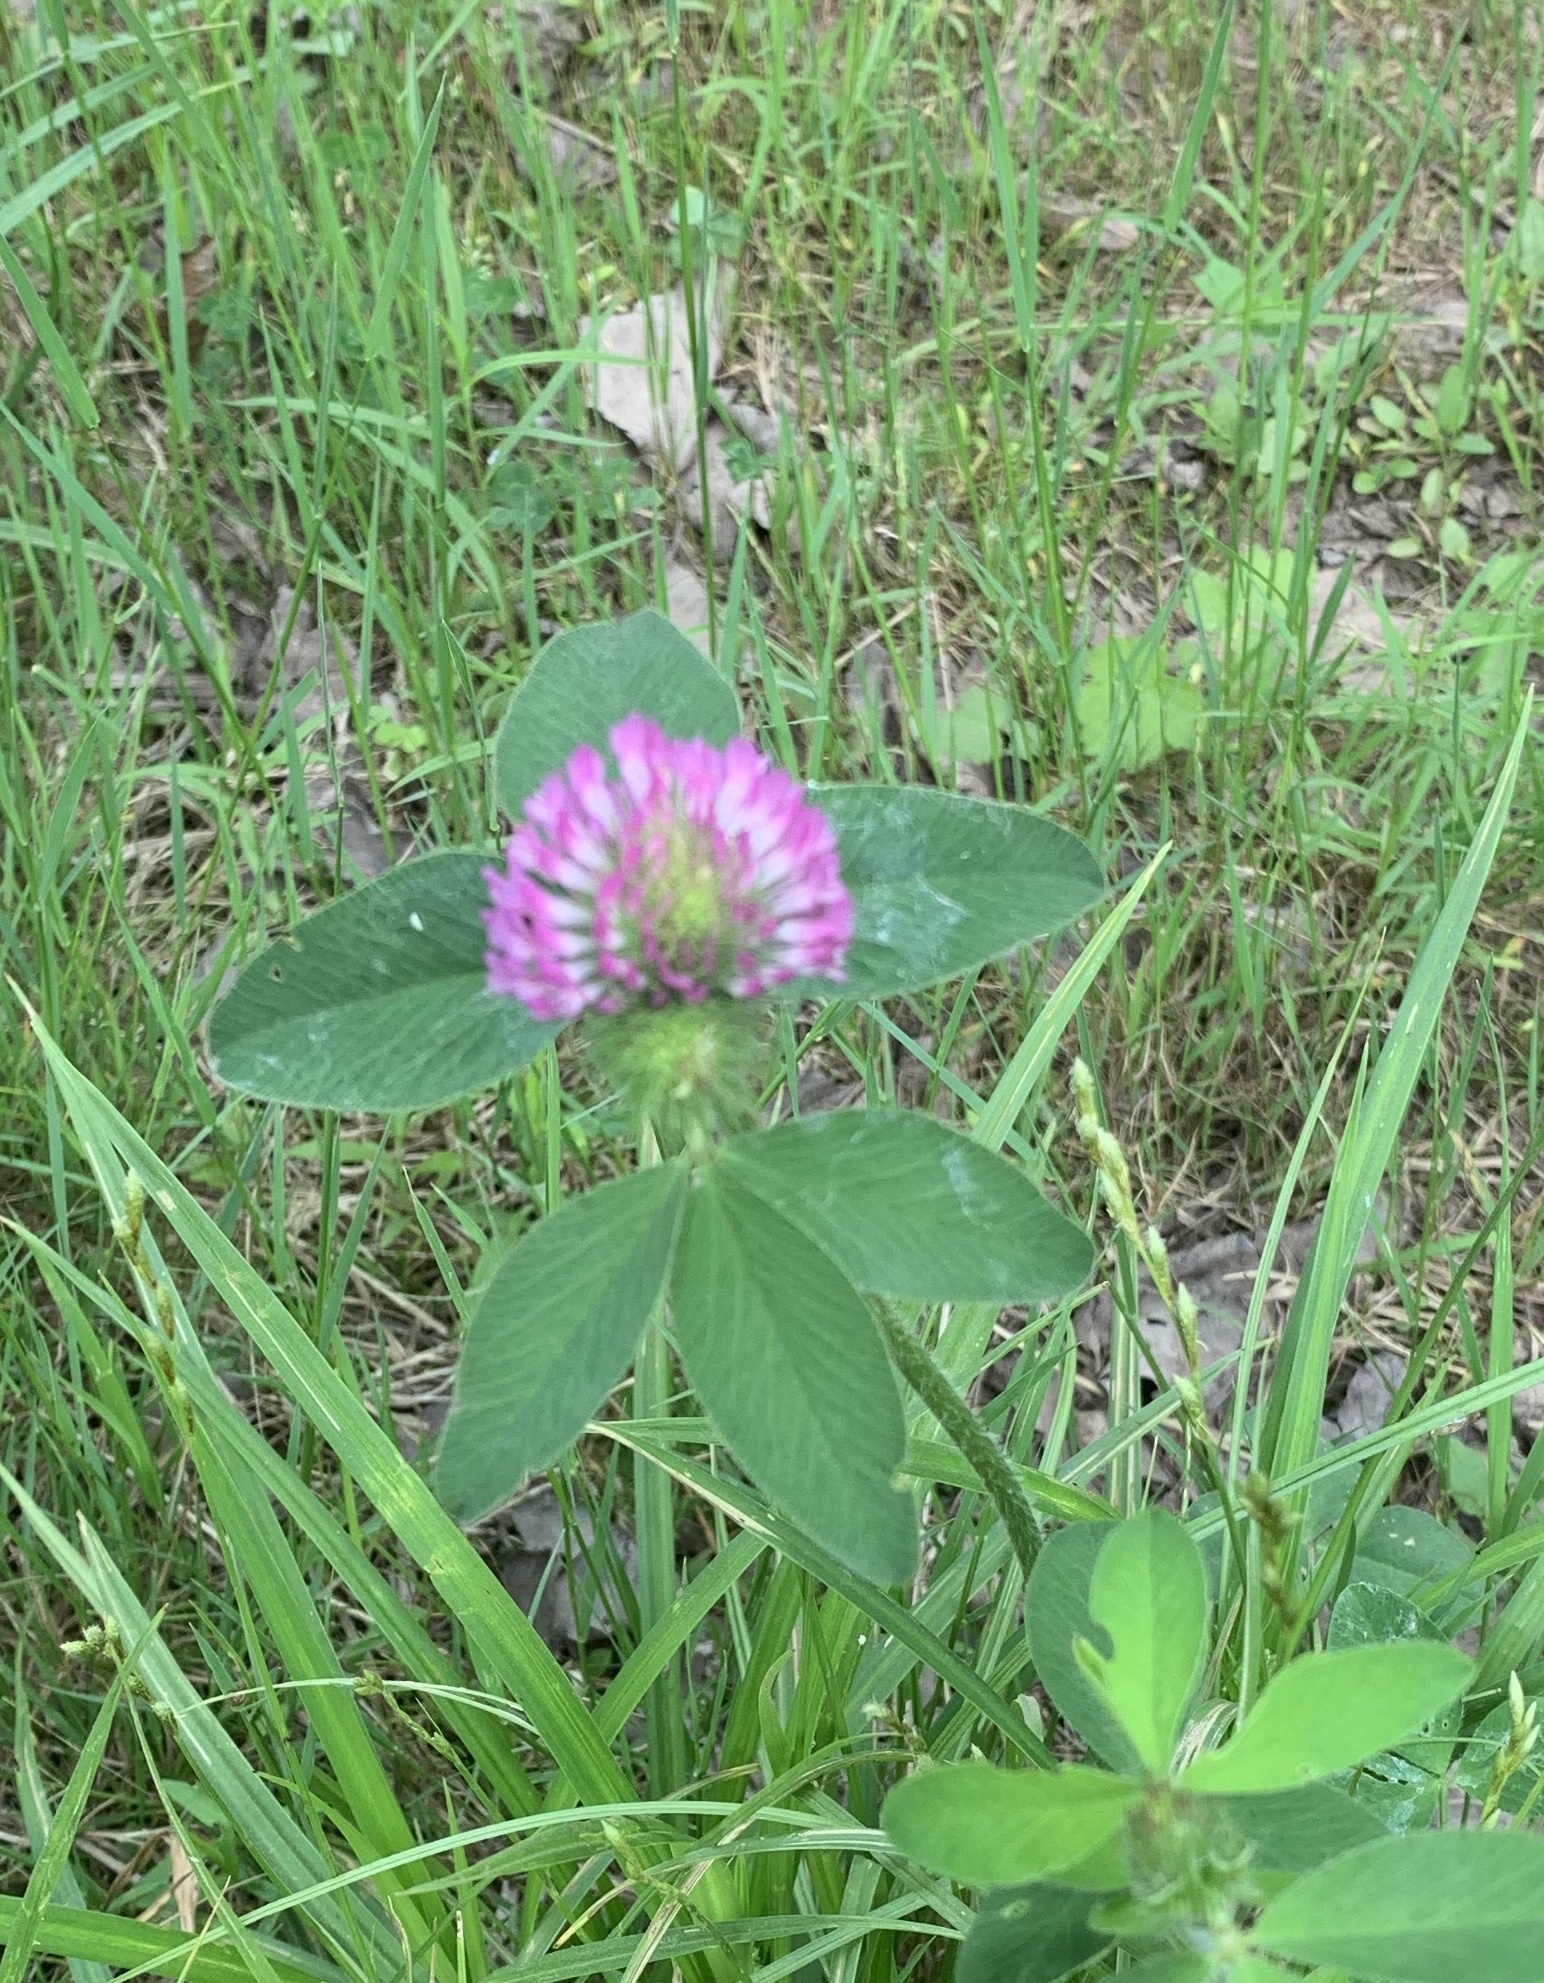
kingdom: Plantae
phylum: Tracheophyta
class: Magnoliopsida
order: Fabales
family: Fabaceae
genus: Trifolium
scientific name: Trifolium pratense
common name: Red clover
